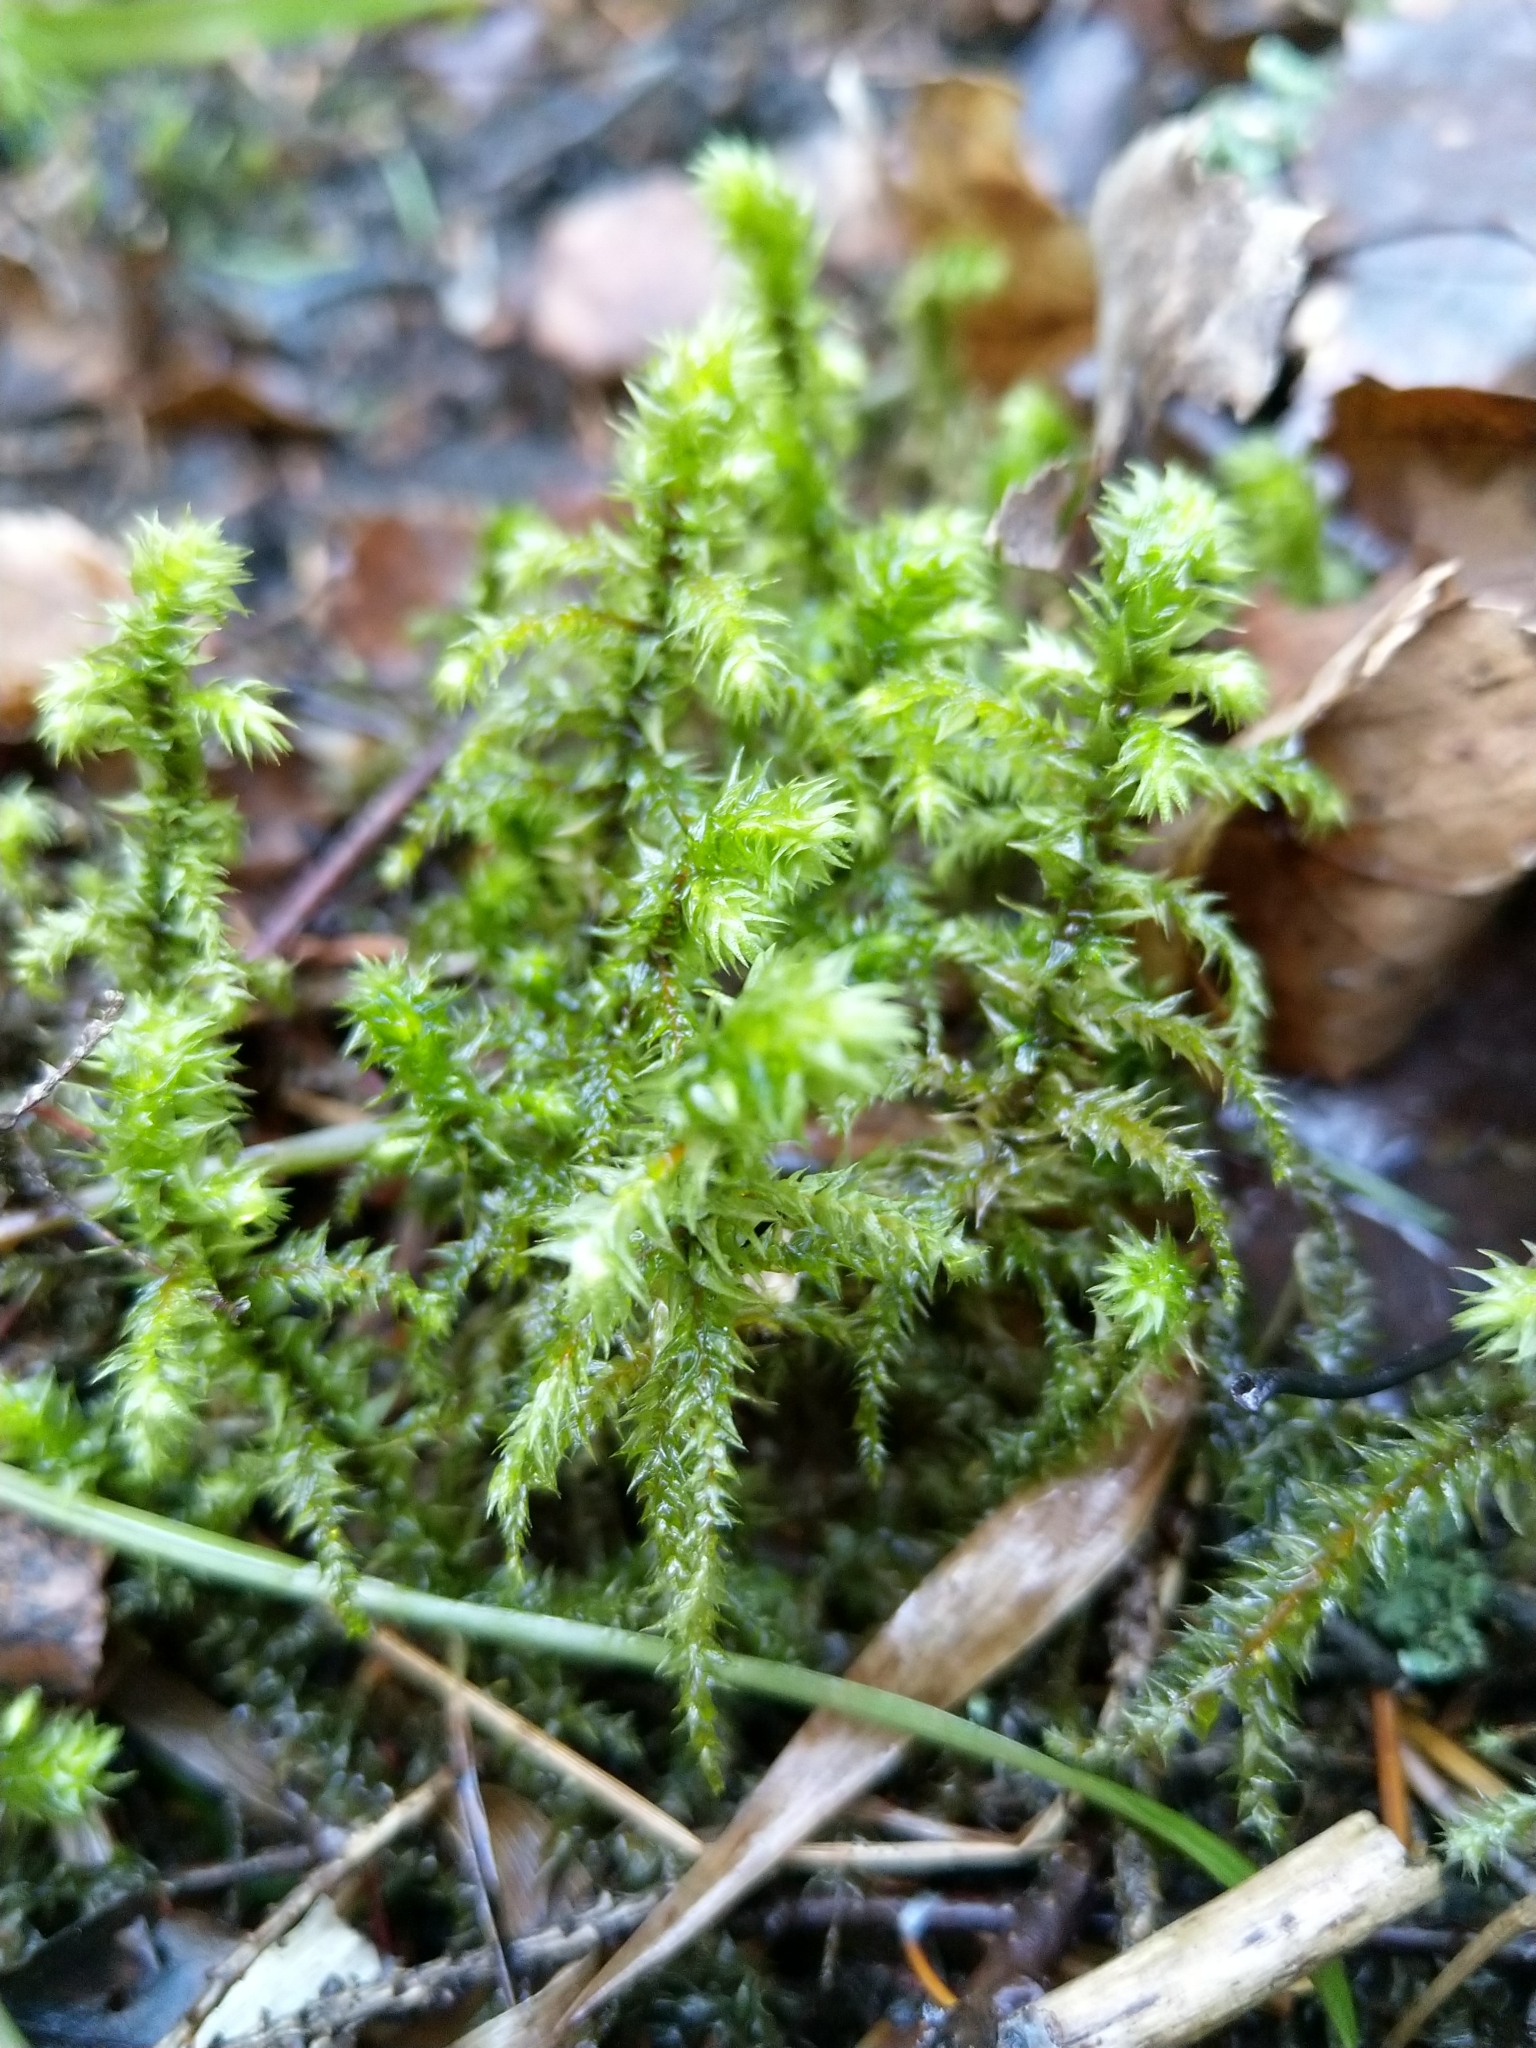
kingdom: Plantae
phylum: Bryophyta
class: Bryopsida
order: Hypnales
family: Hylocomiaceae
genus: Hylocomiadelphus
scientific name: Hylocomiadelphus triquetrus
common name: Rough goose neck moss
